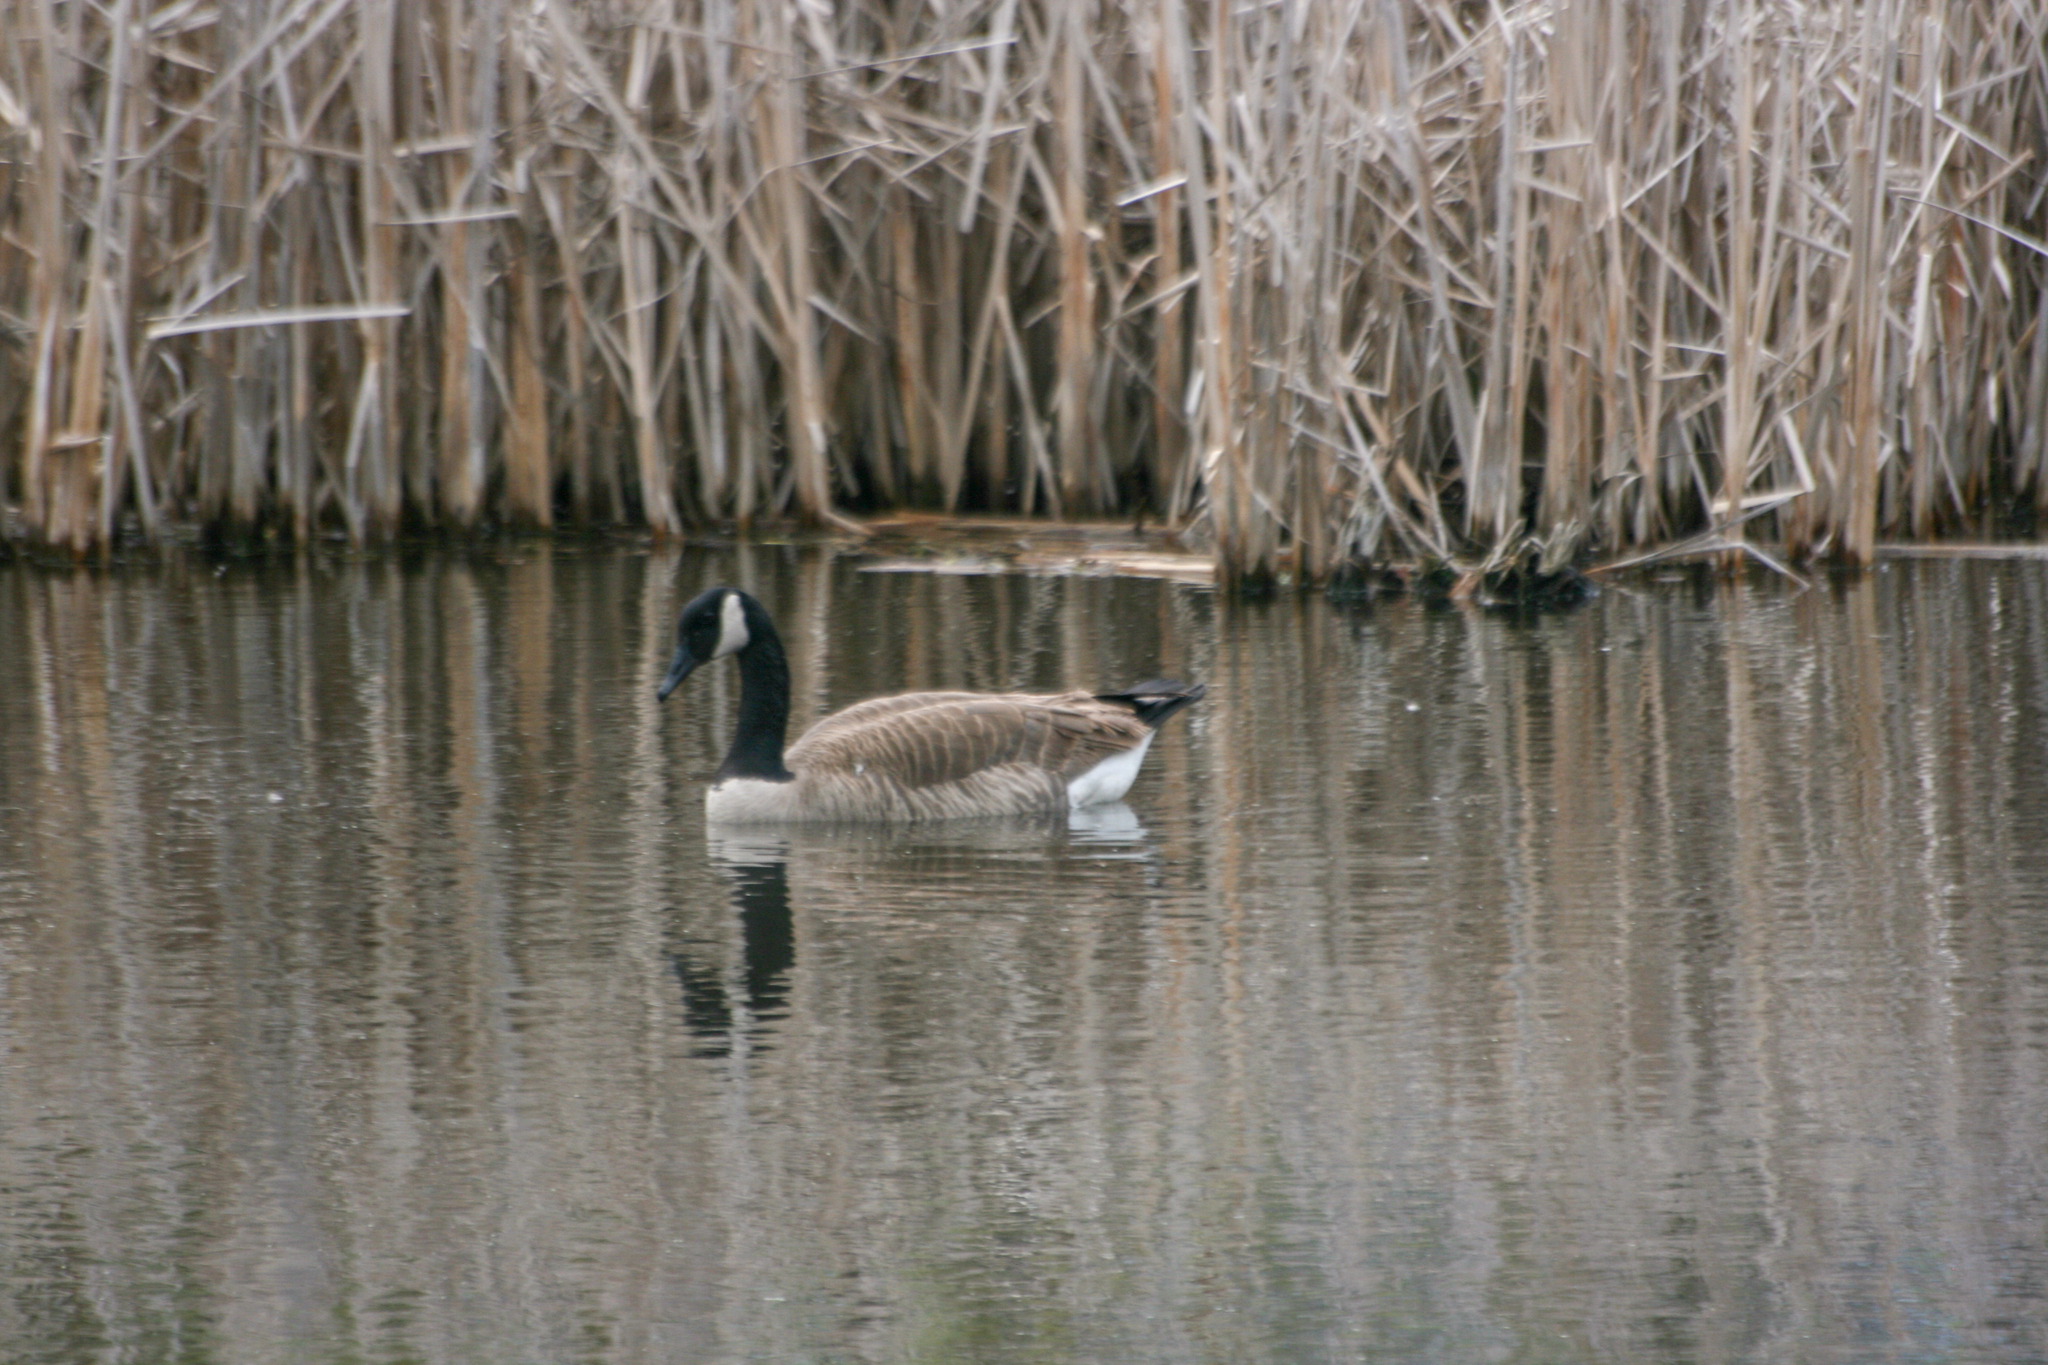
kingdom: Animalia
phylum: Chordata
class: Aves
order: Anseriformes
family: Anatidae
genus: Branta
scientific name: Branta canadensis
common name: Canada goose
